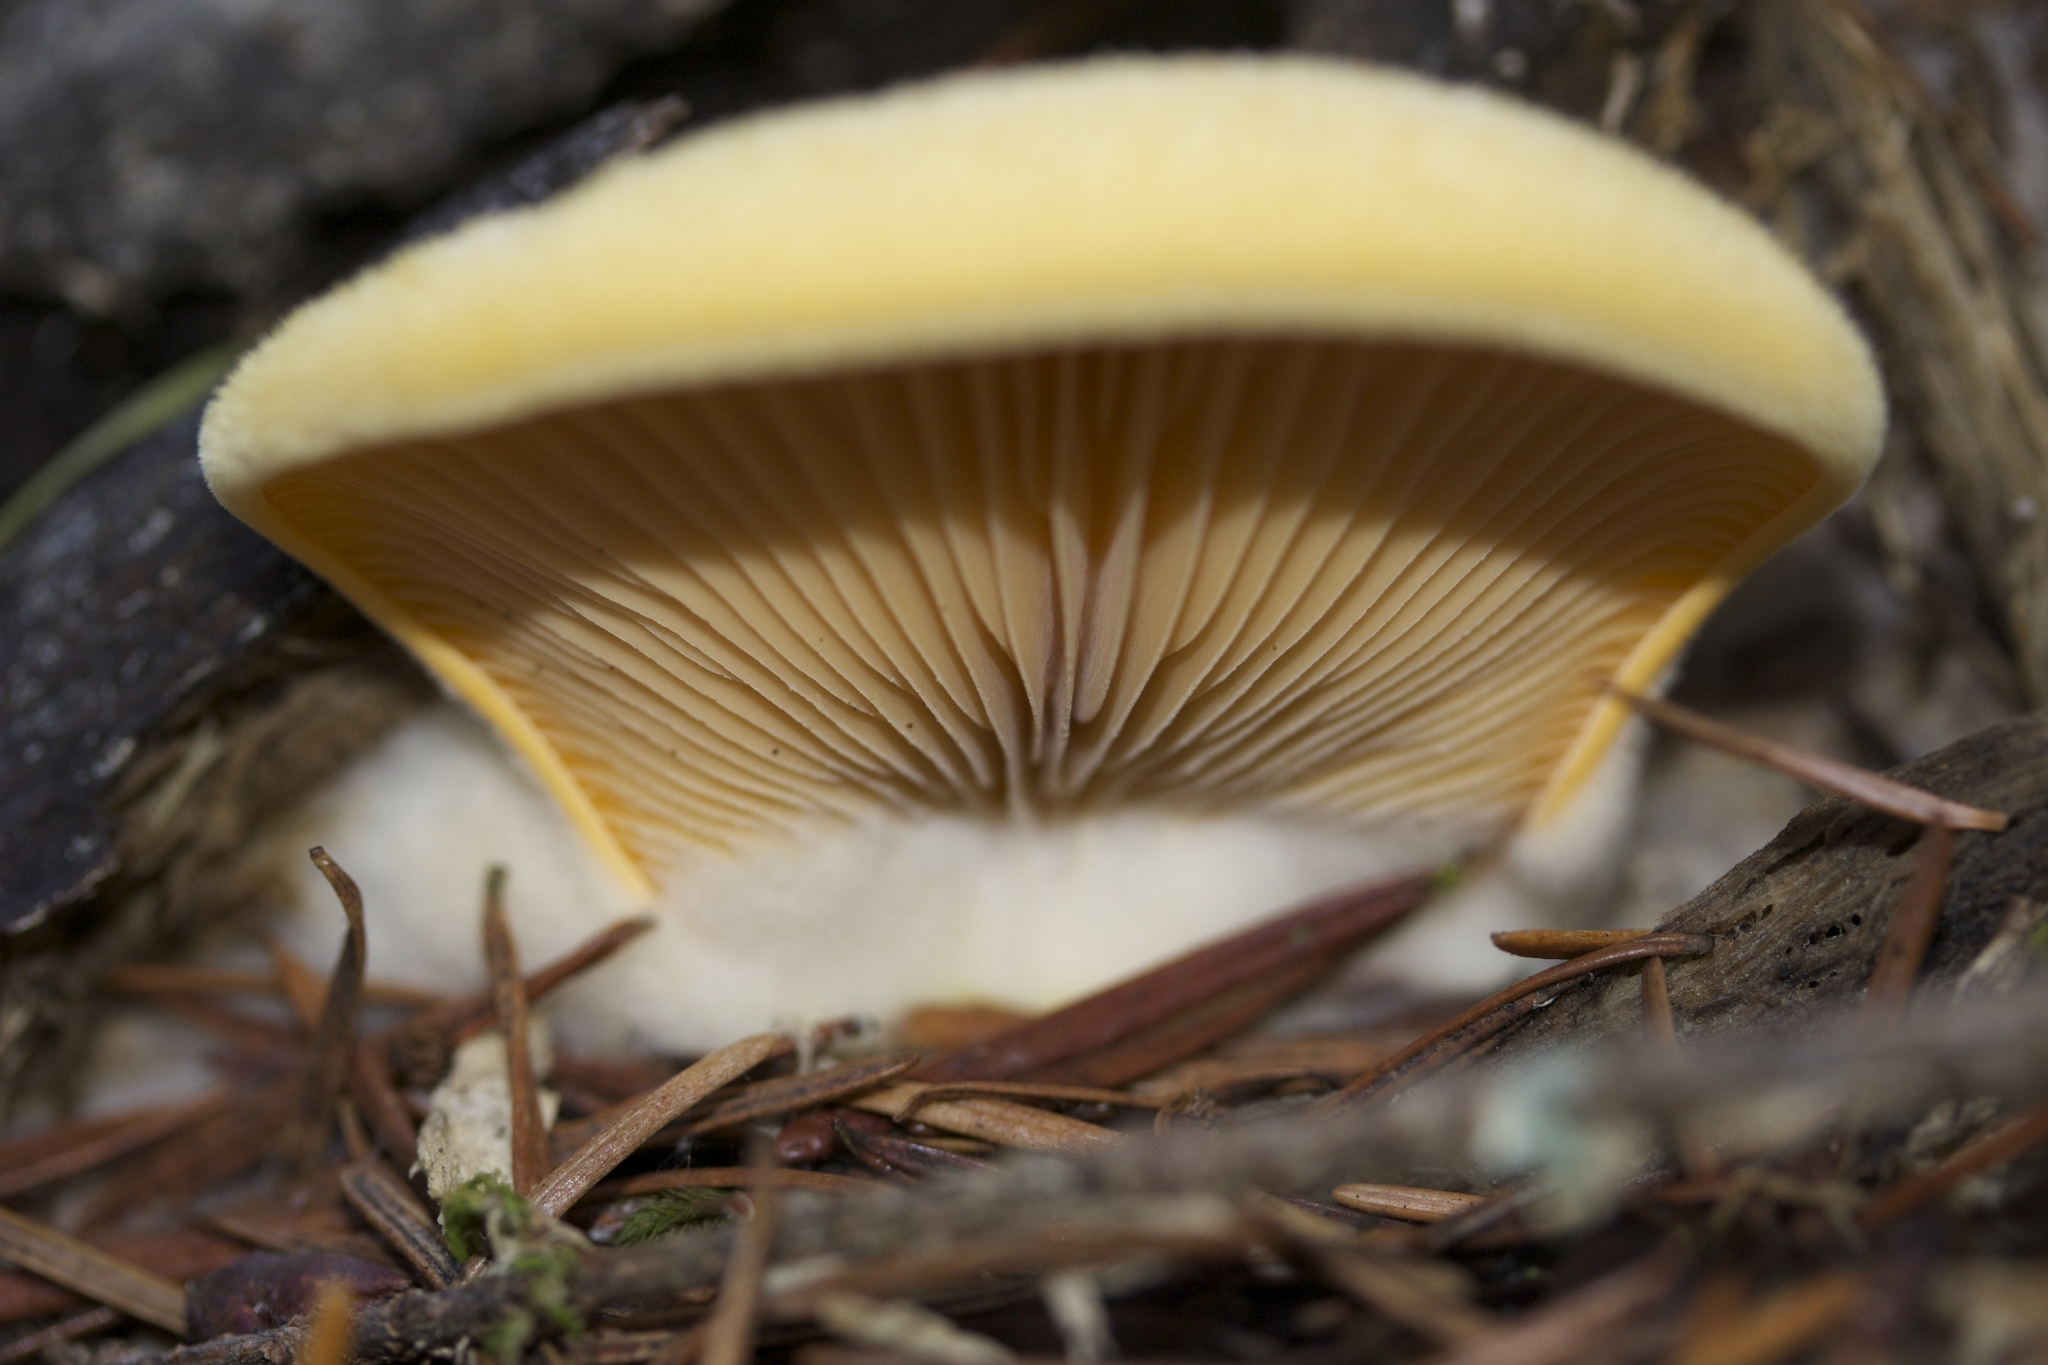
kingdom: Fungi
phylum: Basidiomycota
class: Agaricomycetes
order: Agaricales
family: Phyllotopsidaceae
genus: Phyllotopsis
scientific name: Phyllotopsis nidulans
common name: Orange mock oyster
